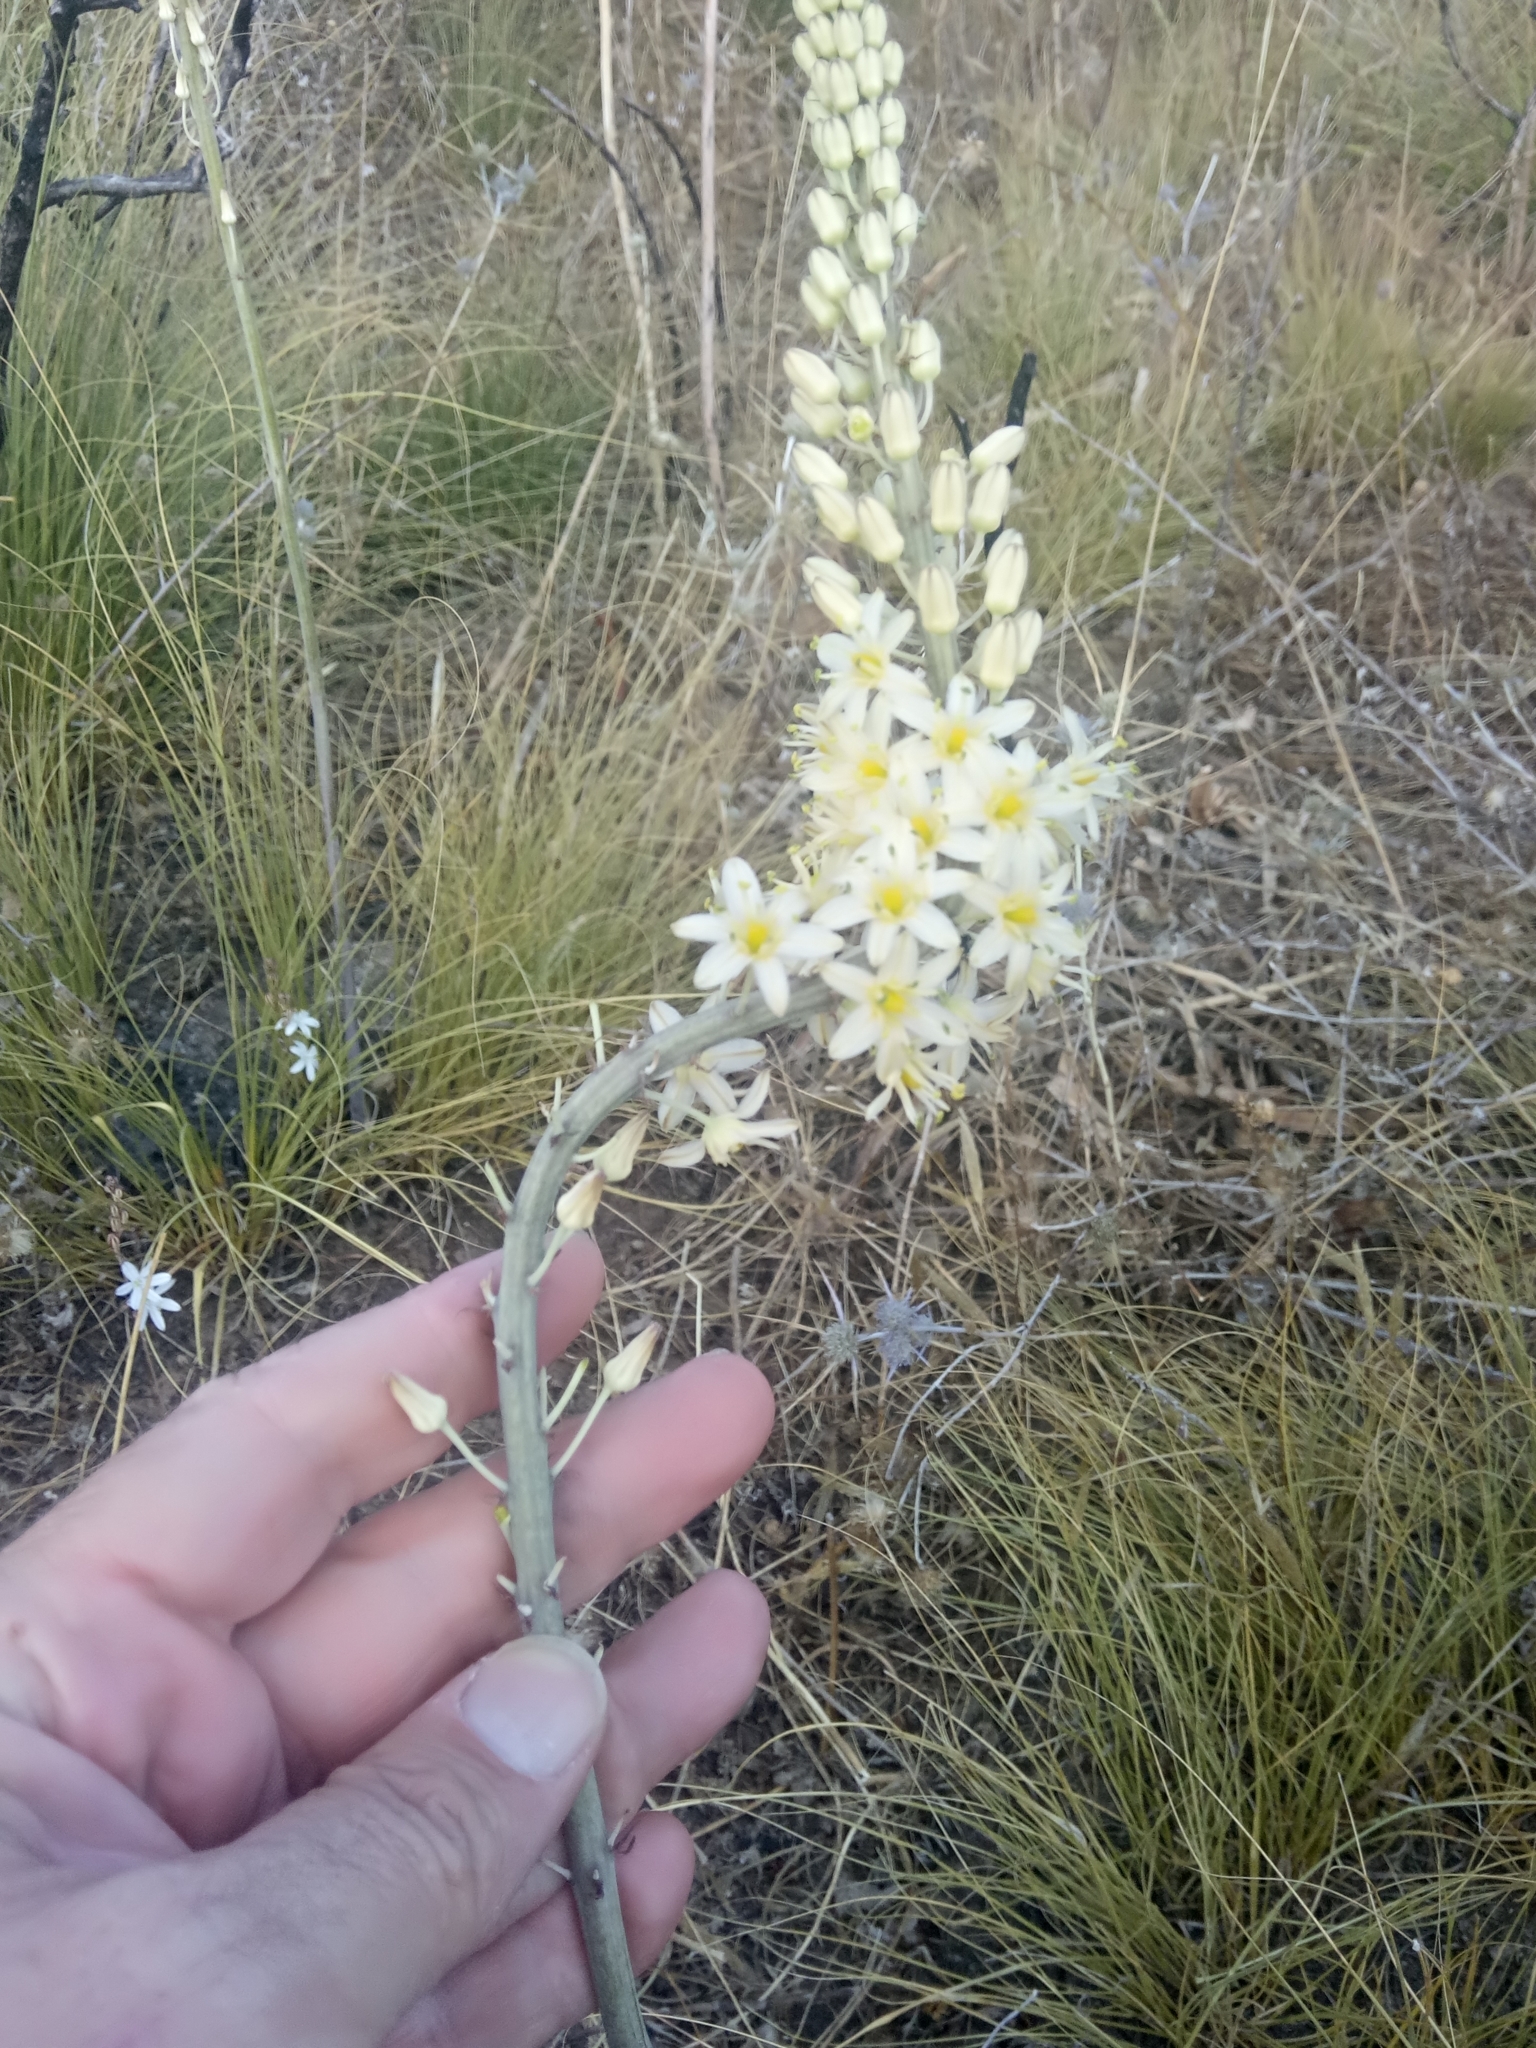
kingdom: Plantae
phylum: Tracheophyta
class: Liliopsida
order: Asparagales
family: Asparagaceae
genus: Drimia
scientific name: Drimia anthericoides
